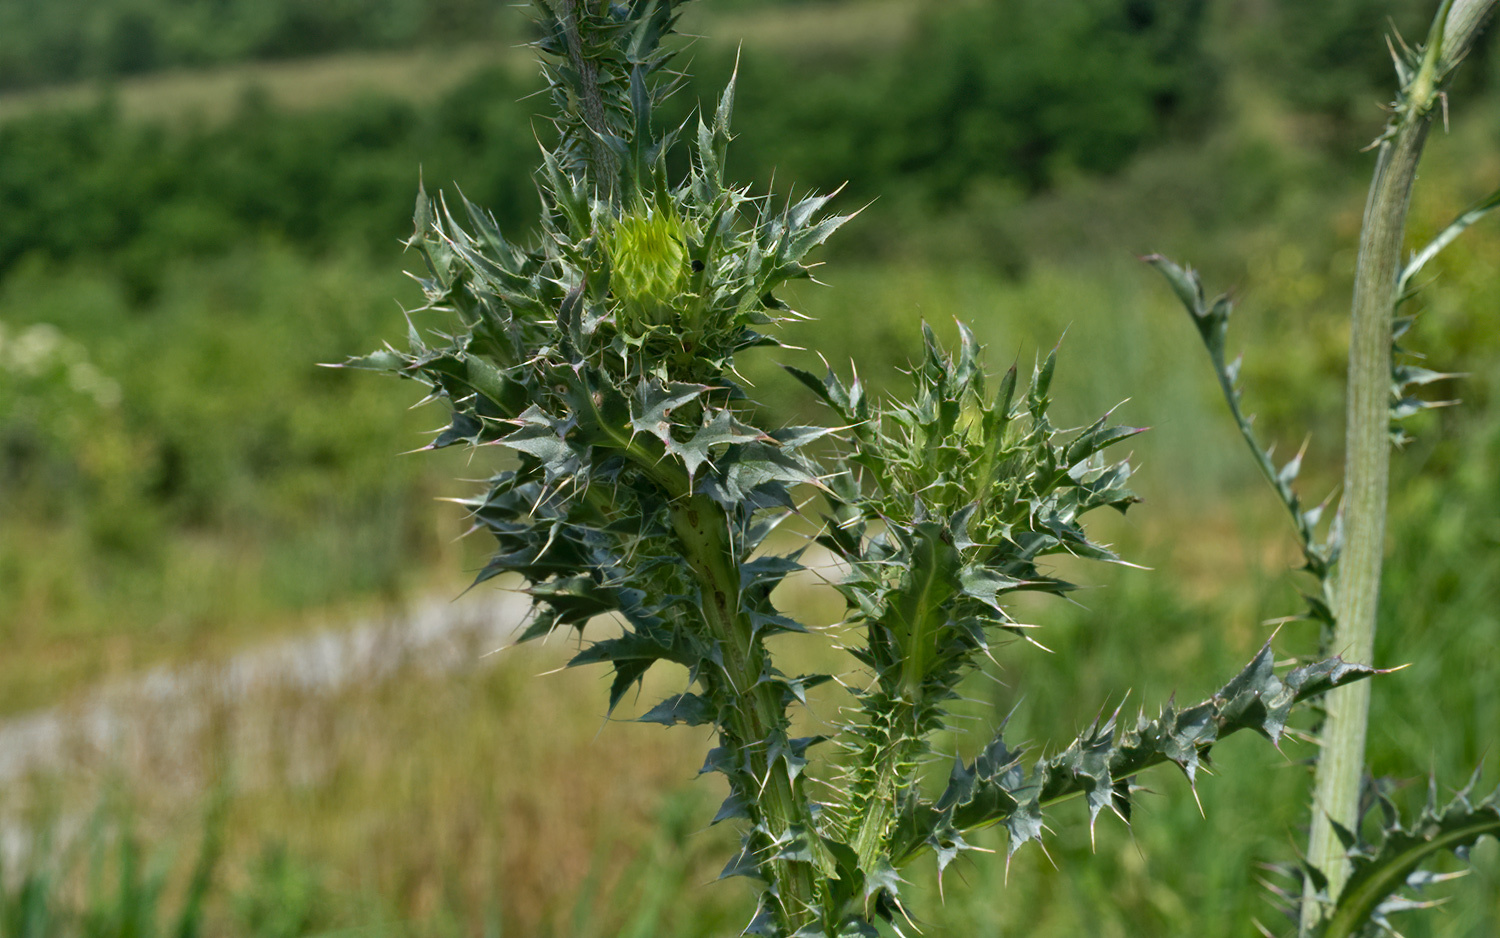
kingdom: Plantae
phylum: Tracheophyta
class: Magnoliopsida
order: Asterales
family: Asteraceae
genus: Carduus
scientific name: Carduus nutans
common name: Musk thistle
